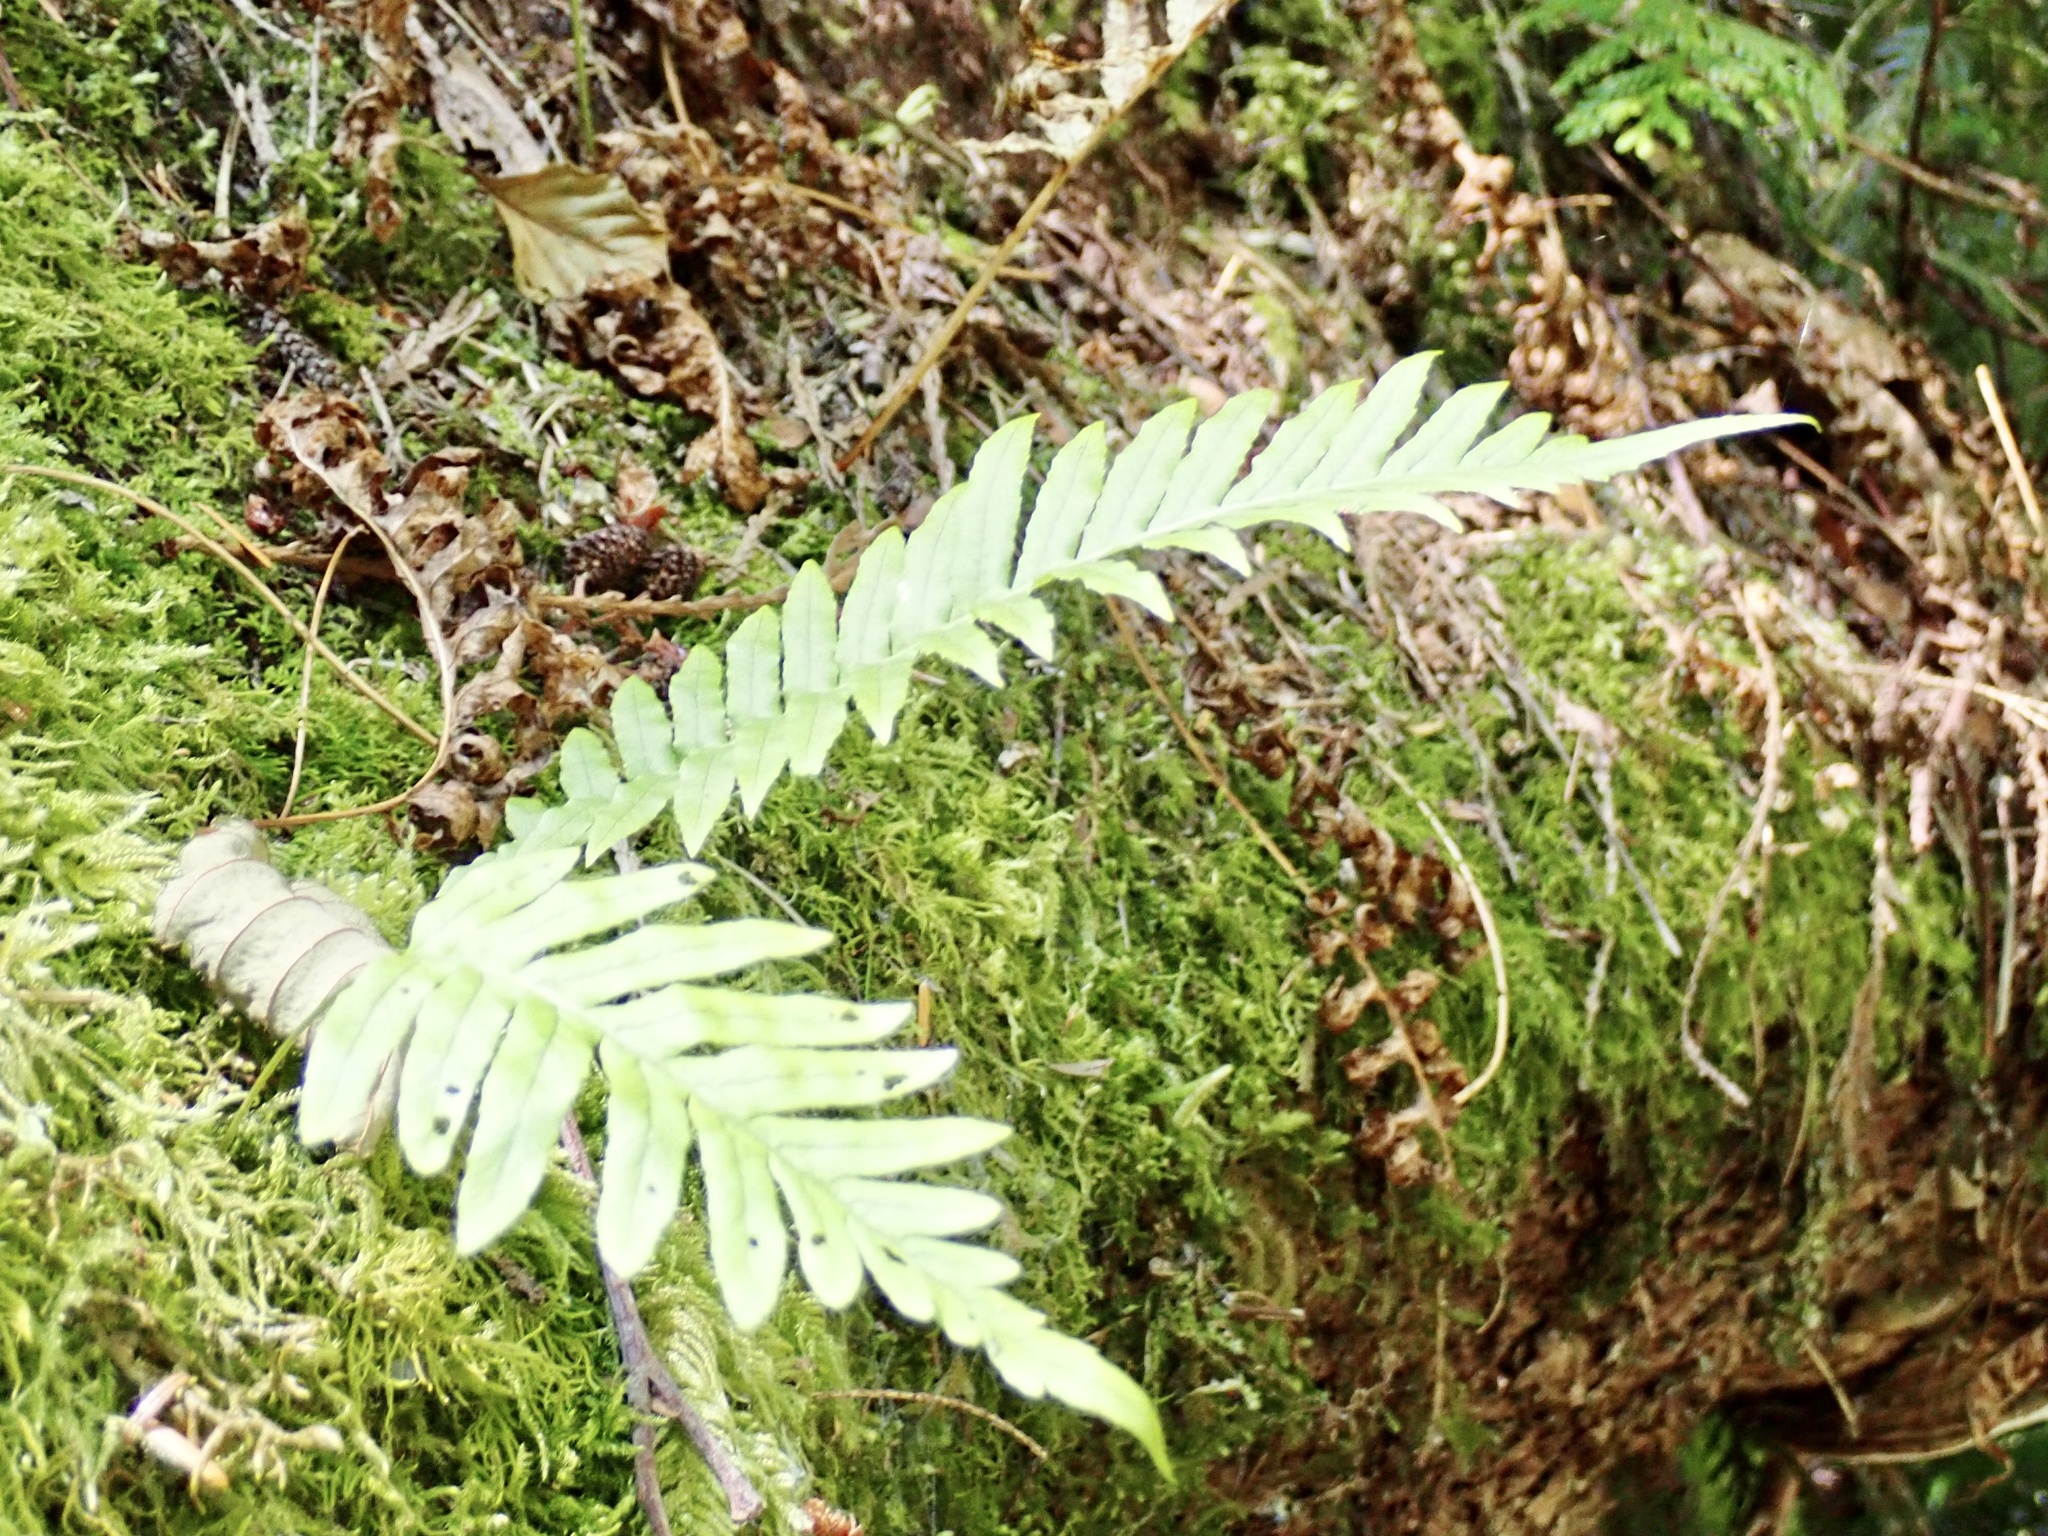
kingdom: Plantae
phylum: Tracheophyta
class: Polypodiopsida
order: Polypodiales
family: Polypodiaceae
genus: Polypodium
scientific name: Polypodium glycyrrhiza
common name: Licorice fern
